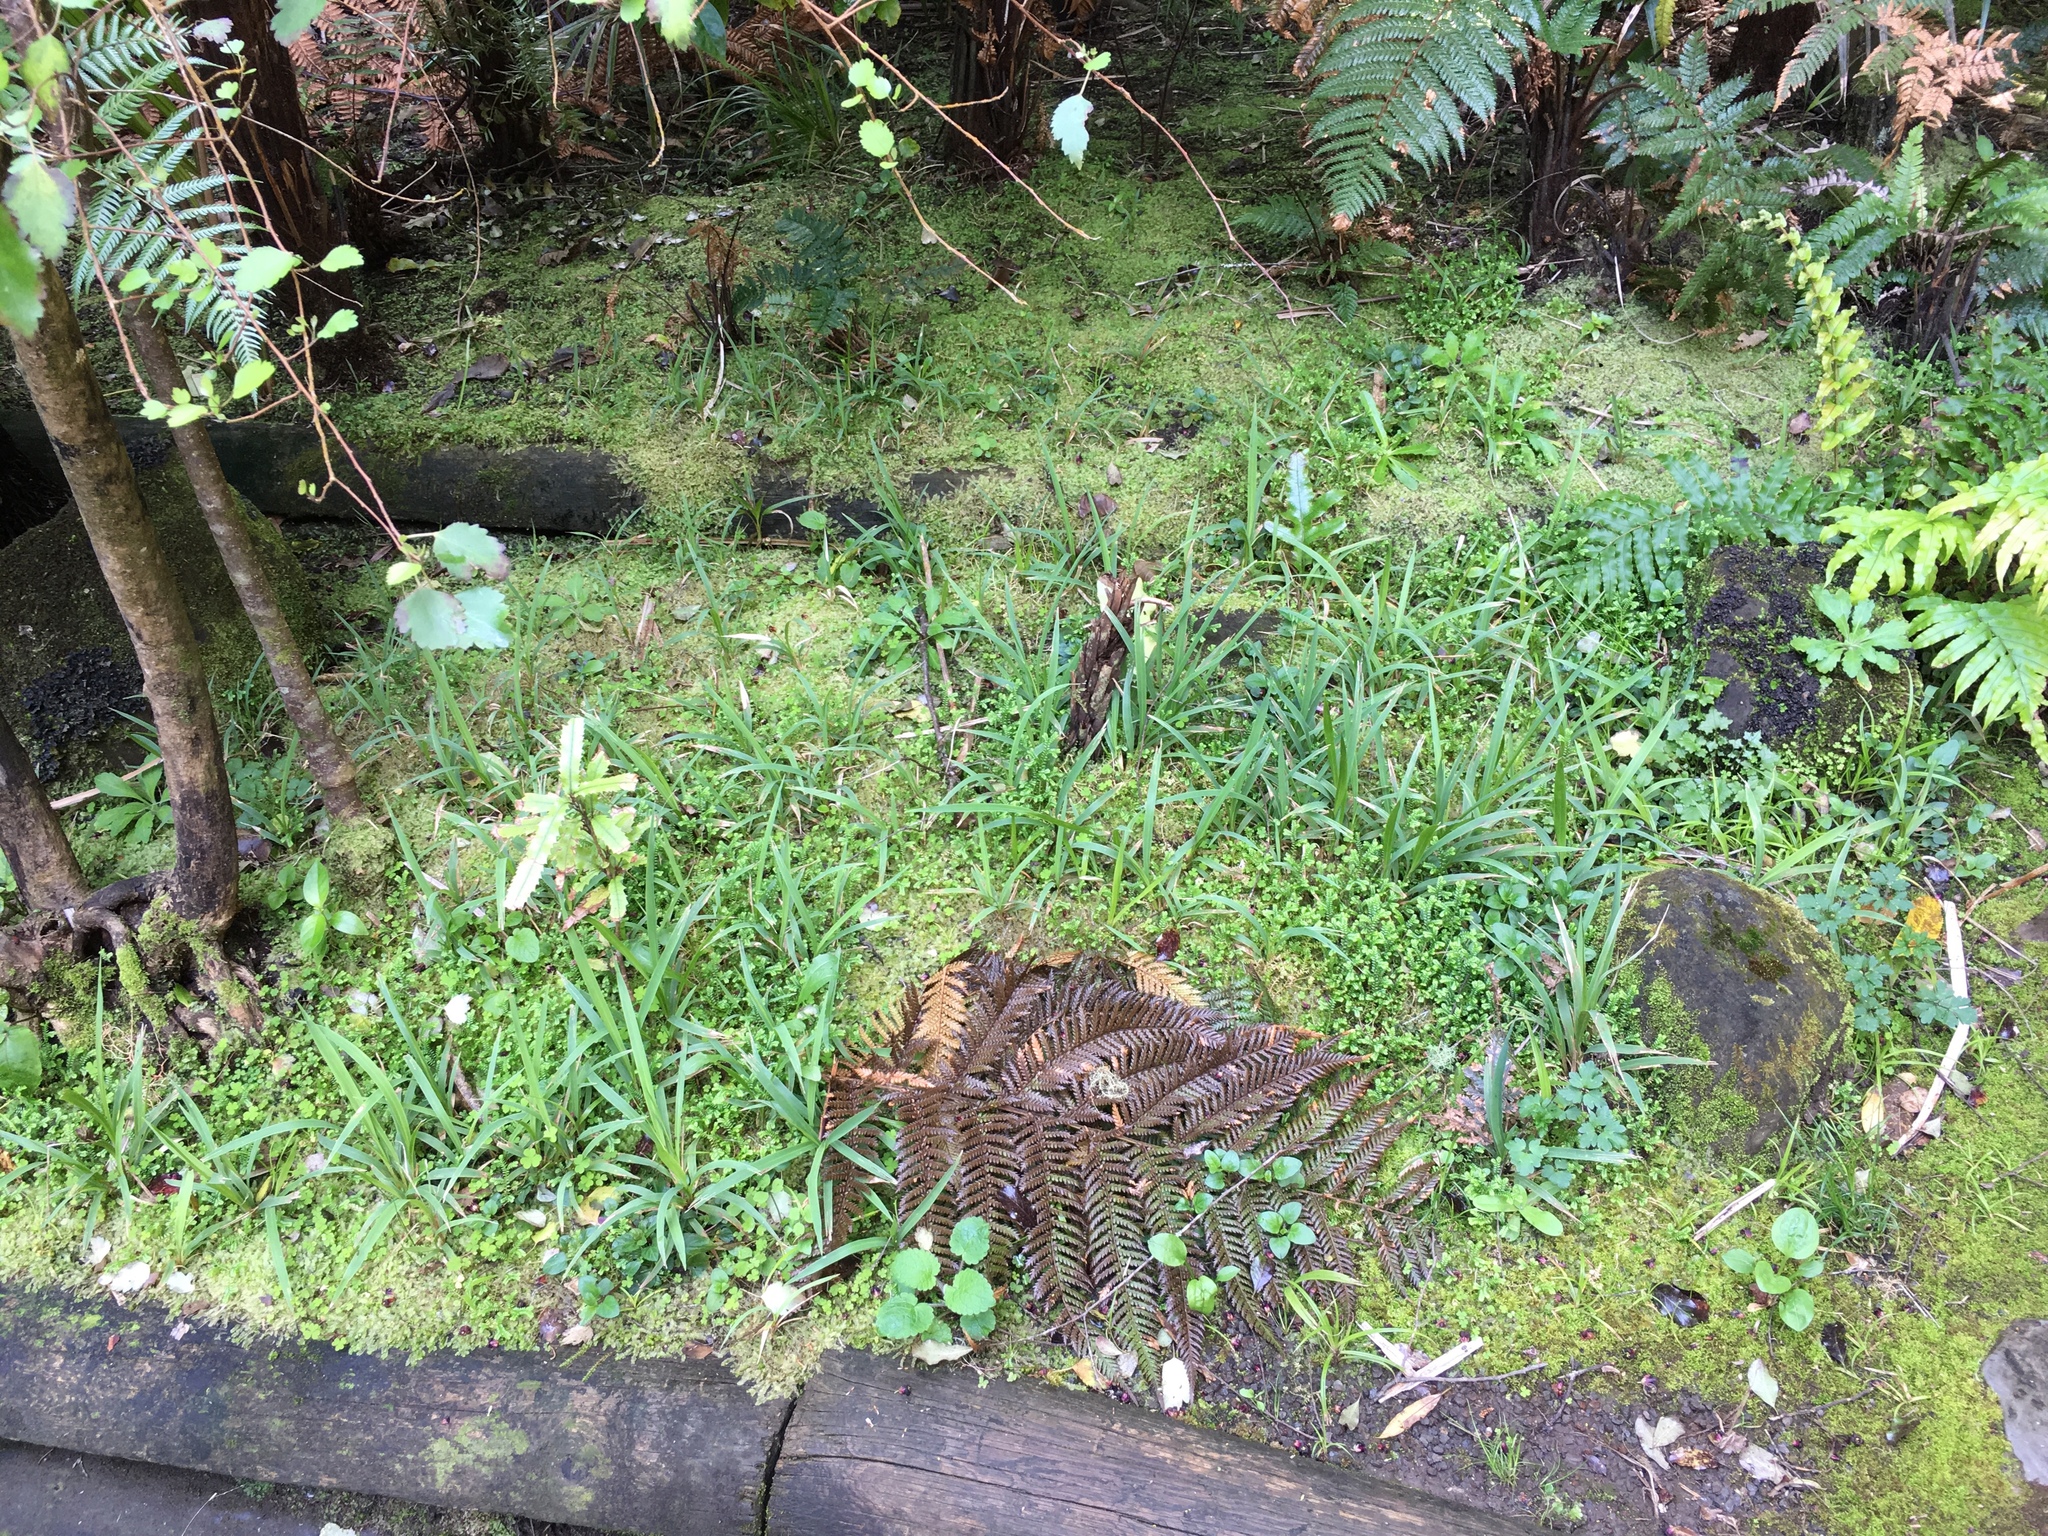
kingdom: Plantae
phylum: Tracheophyta
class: Lycopodiopsida
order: Selaginellales
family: Selaginellaceae
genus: Selaginella
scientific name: Selaginella kraussiana
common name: Krauss' spikemoss
